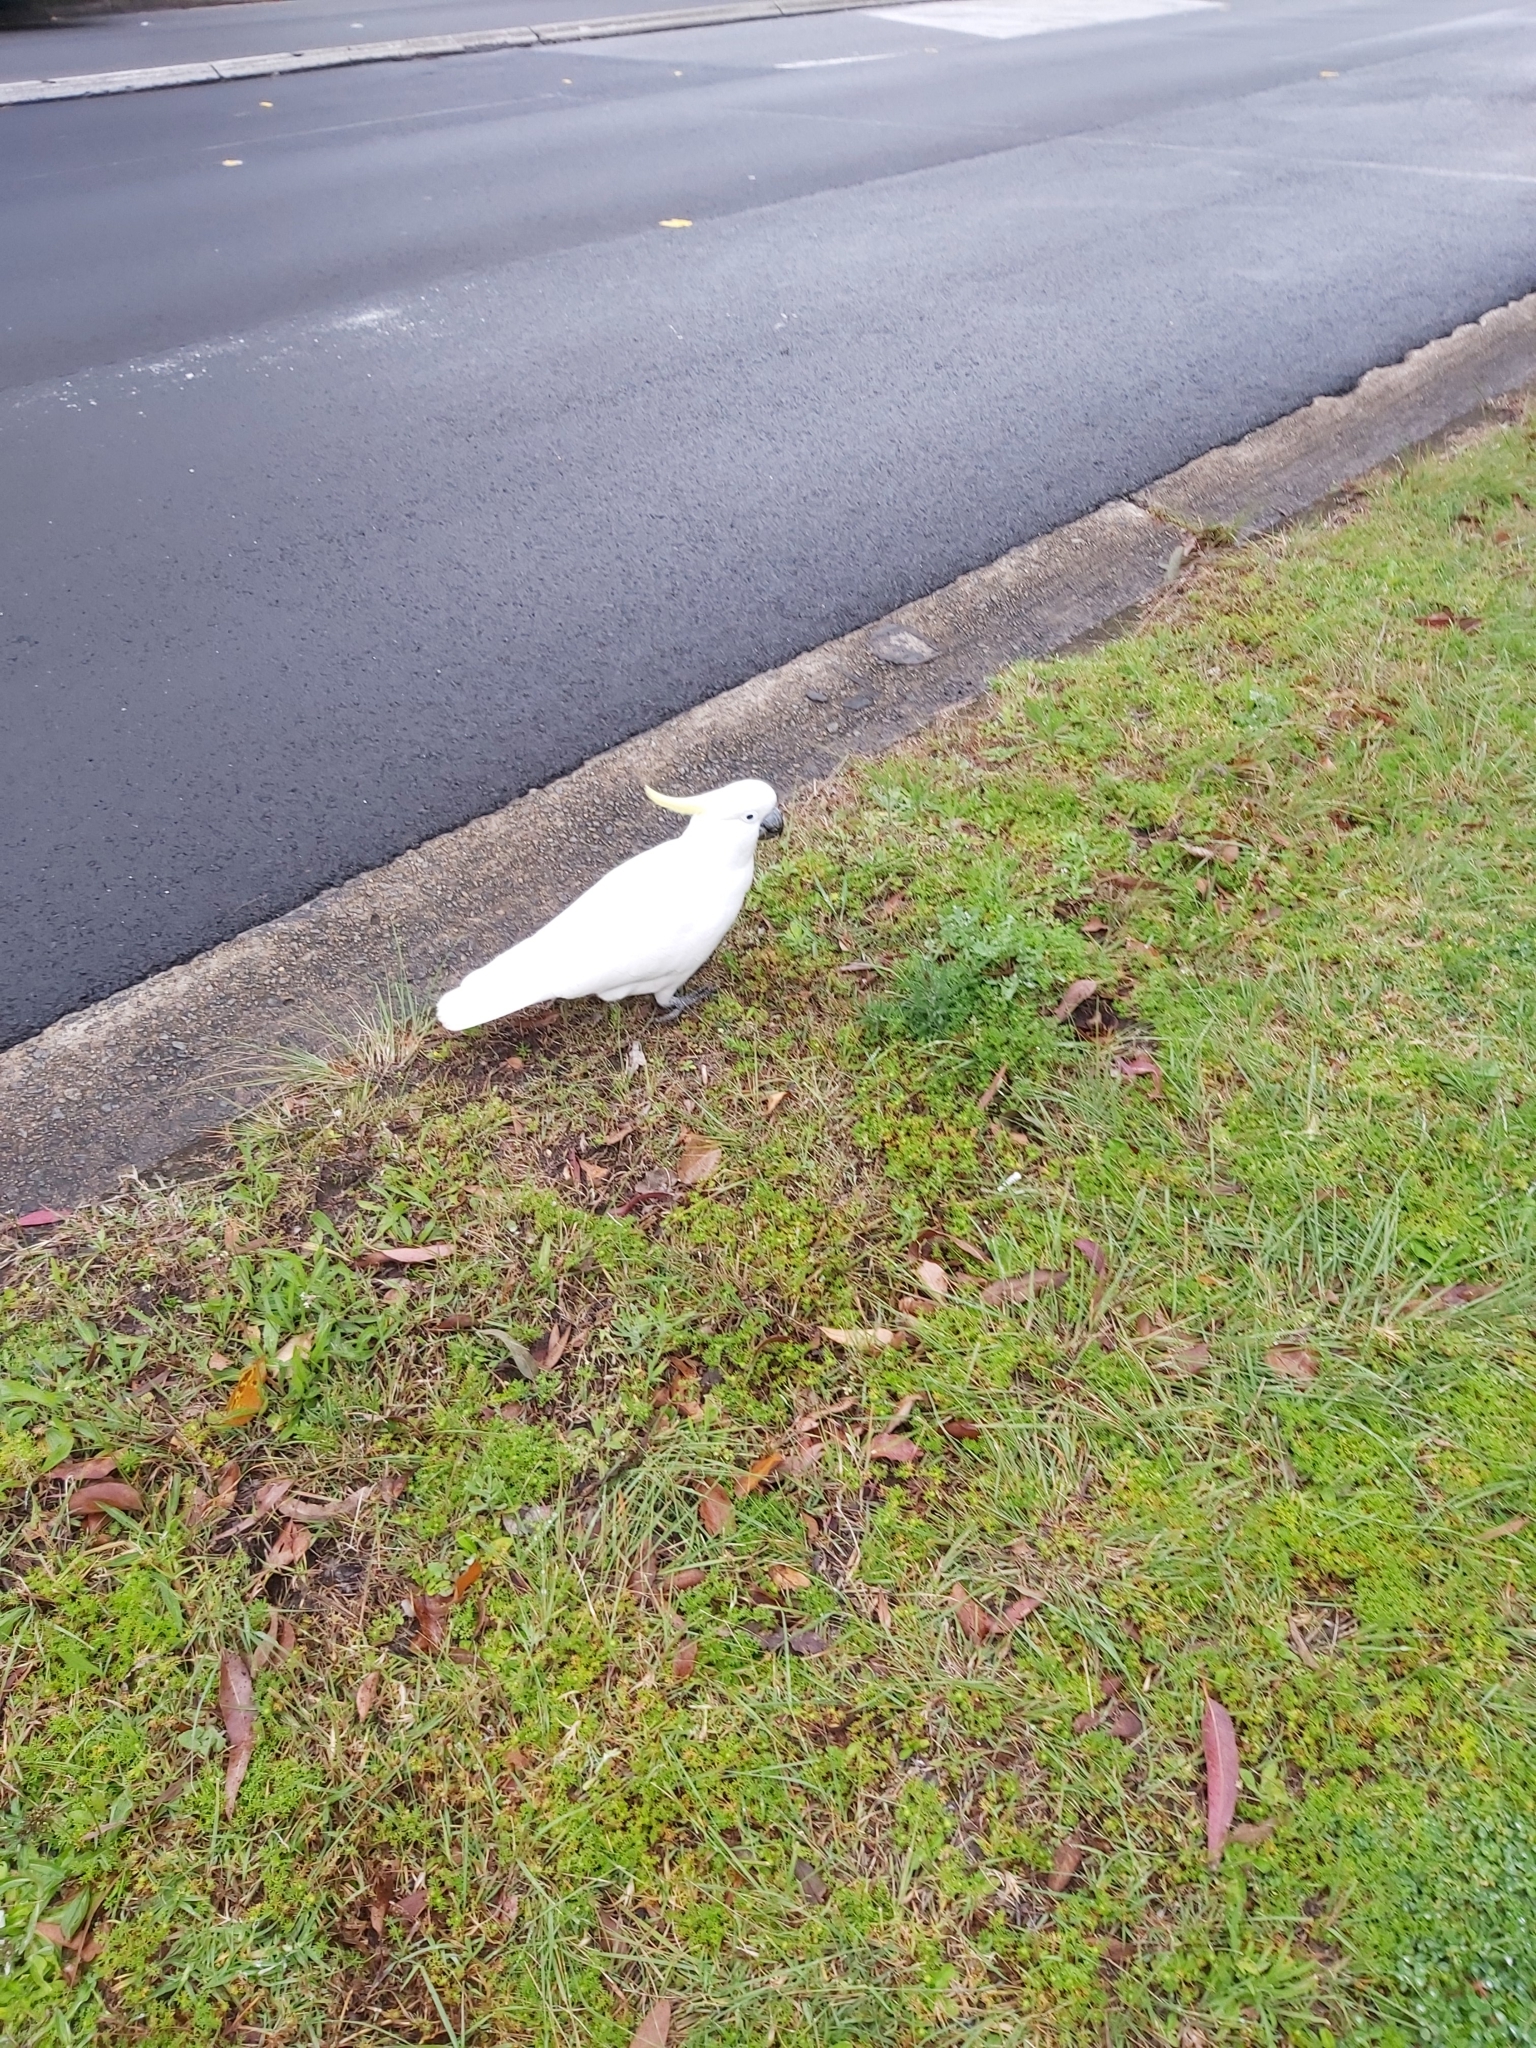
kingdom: Animalia
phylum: Chordata
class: Aves
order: Psittaciformes
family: Psittacidae
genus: Cacatua
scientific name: Cacatua galerita
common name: Sulphur-crested cockatoo
